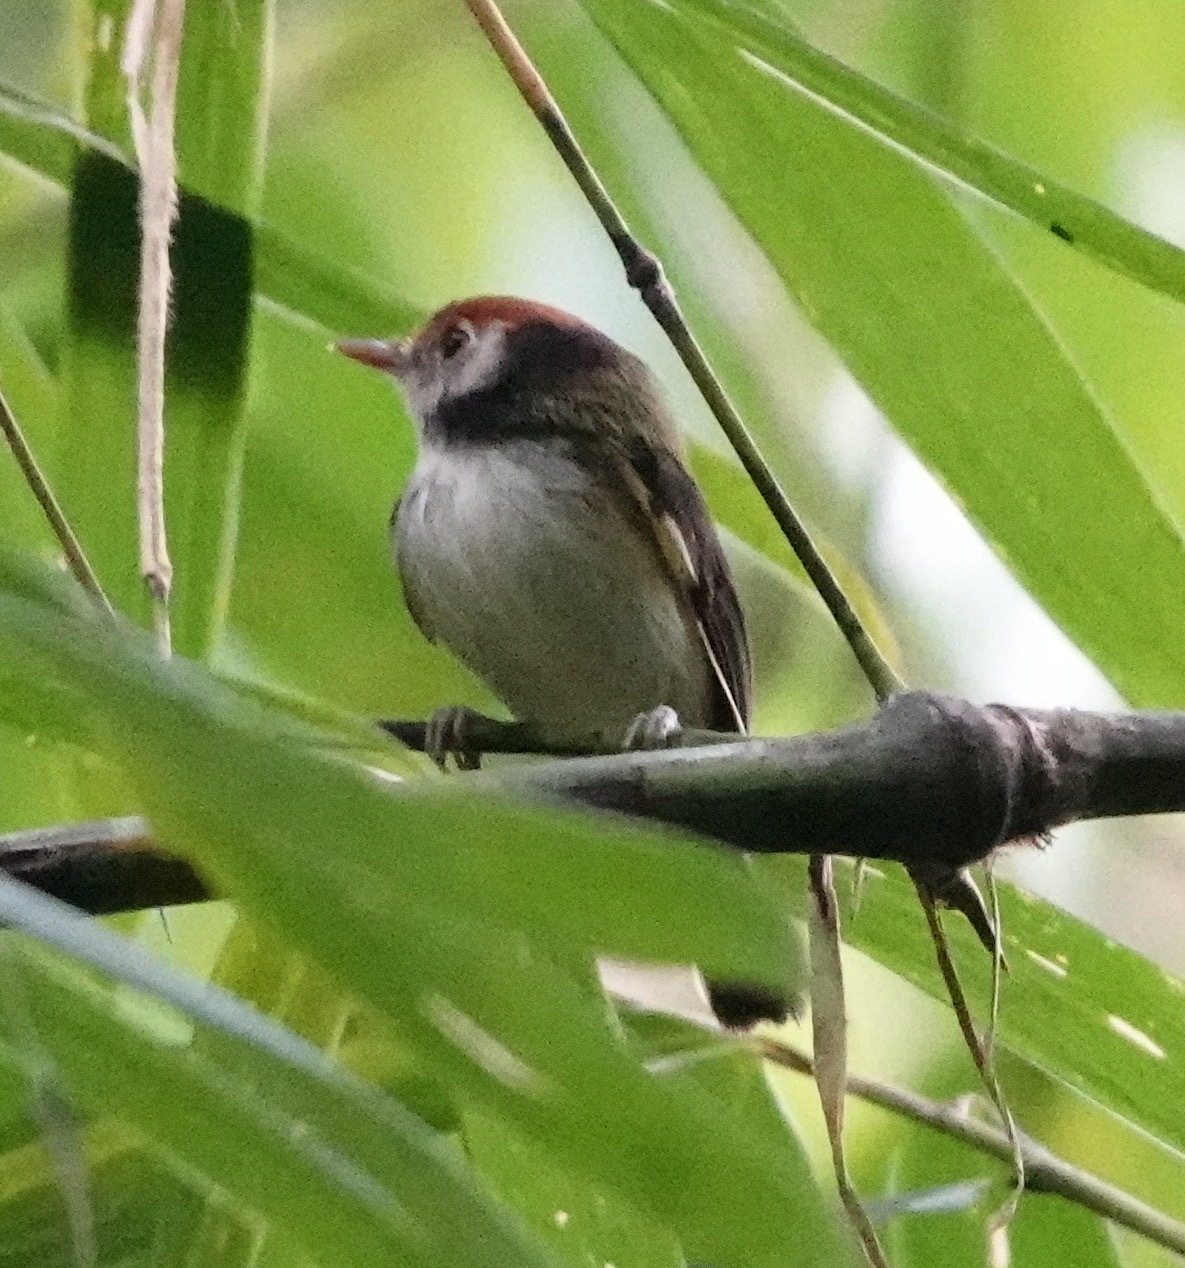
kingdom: Animalia
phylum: Chordata
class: Aves
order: Passeriformes
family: Tyrannidae
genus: Poecilotriccus
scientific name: Poecilotriccus albifacies
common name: White-cheeked tody-flycatcher
